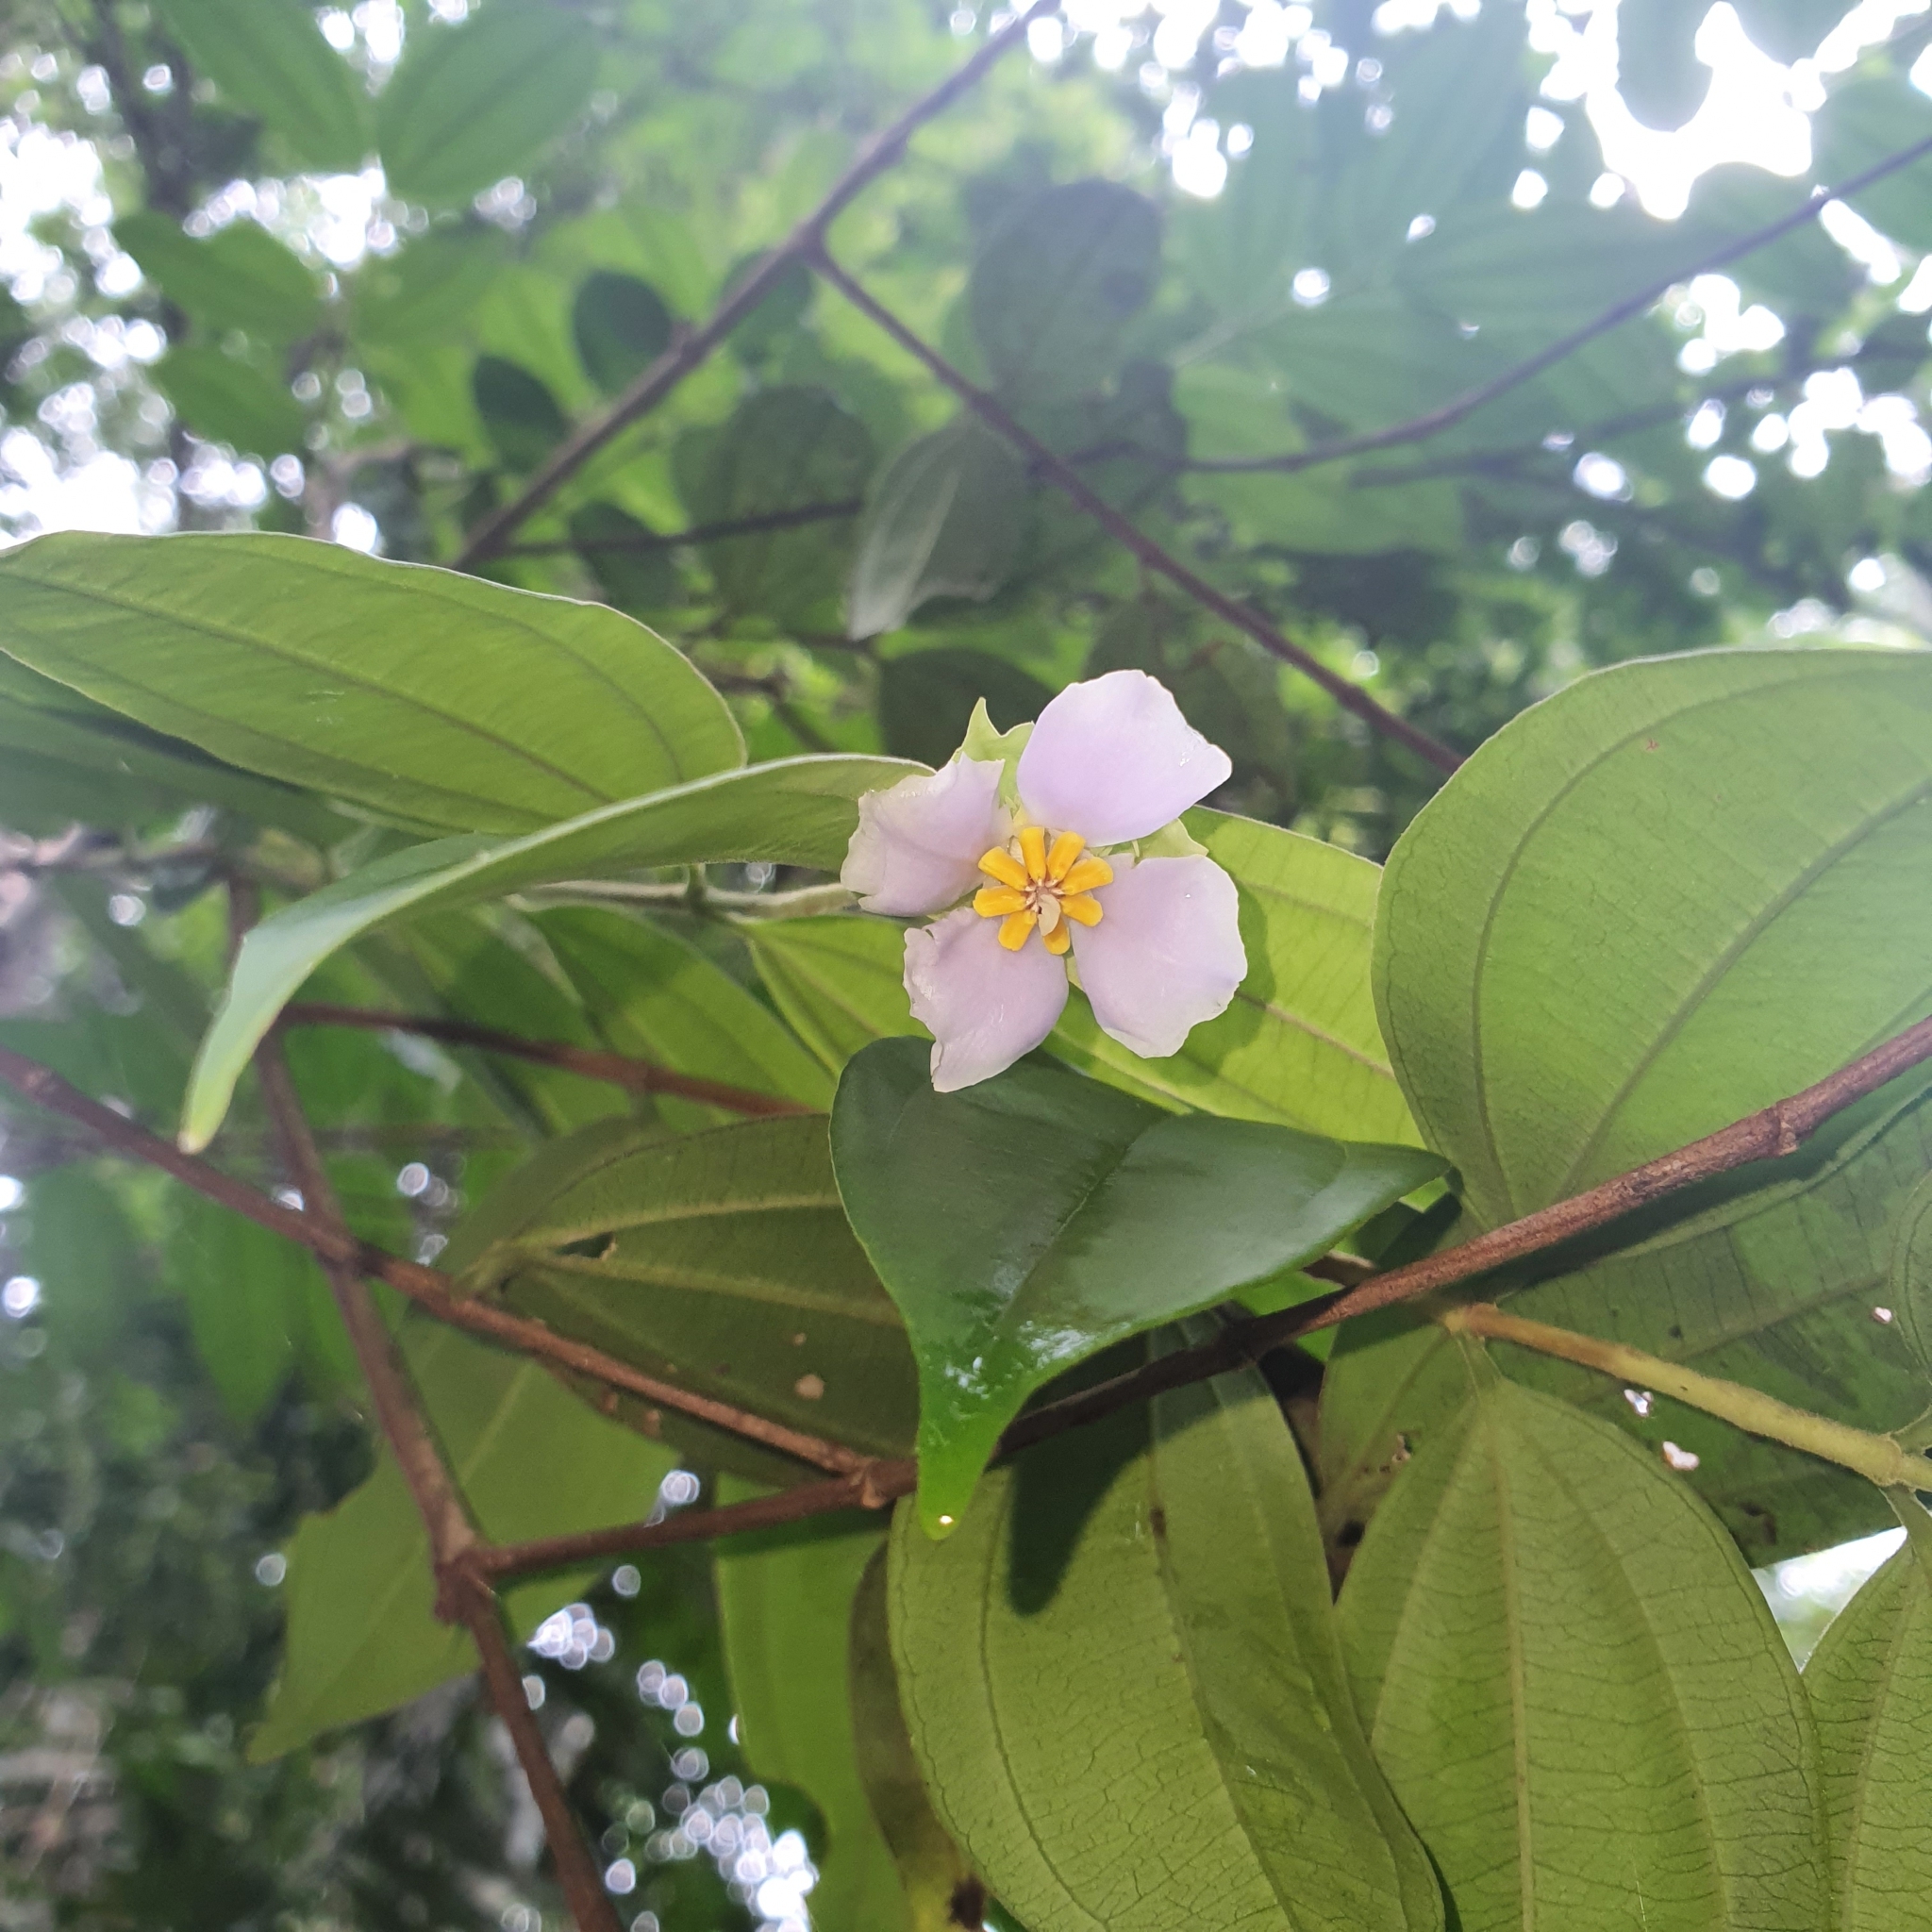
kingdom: Plantae
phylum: Tracheophyta
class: Magnoliopsida
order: Myrtales
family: Melastomataceae
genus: Pternandra
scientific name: Pternandra echinata
